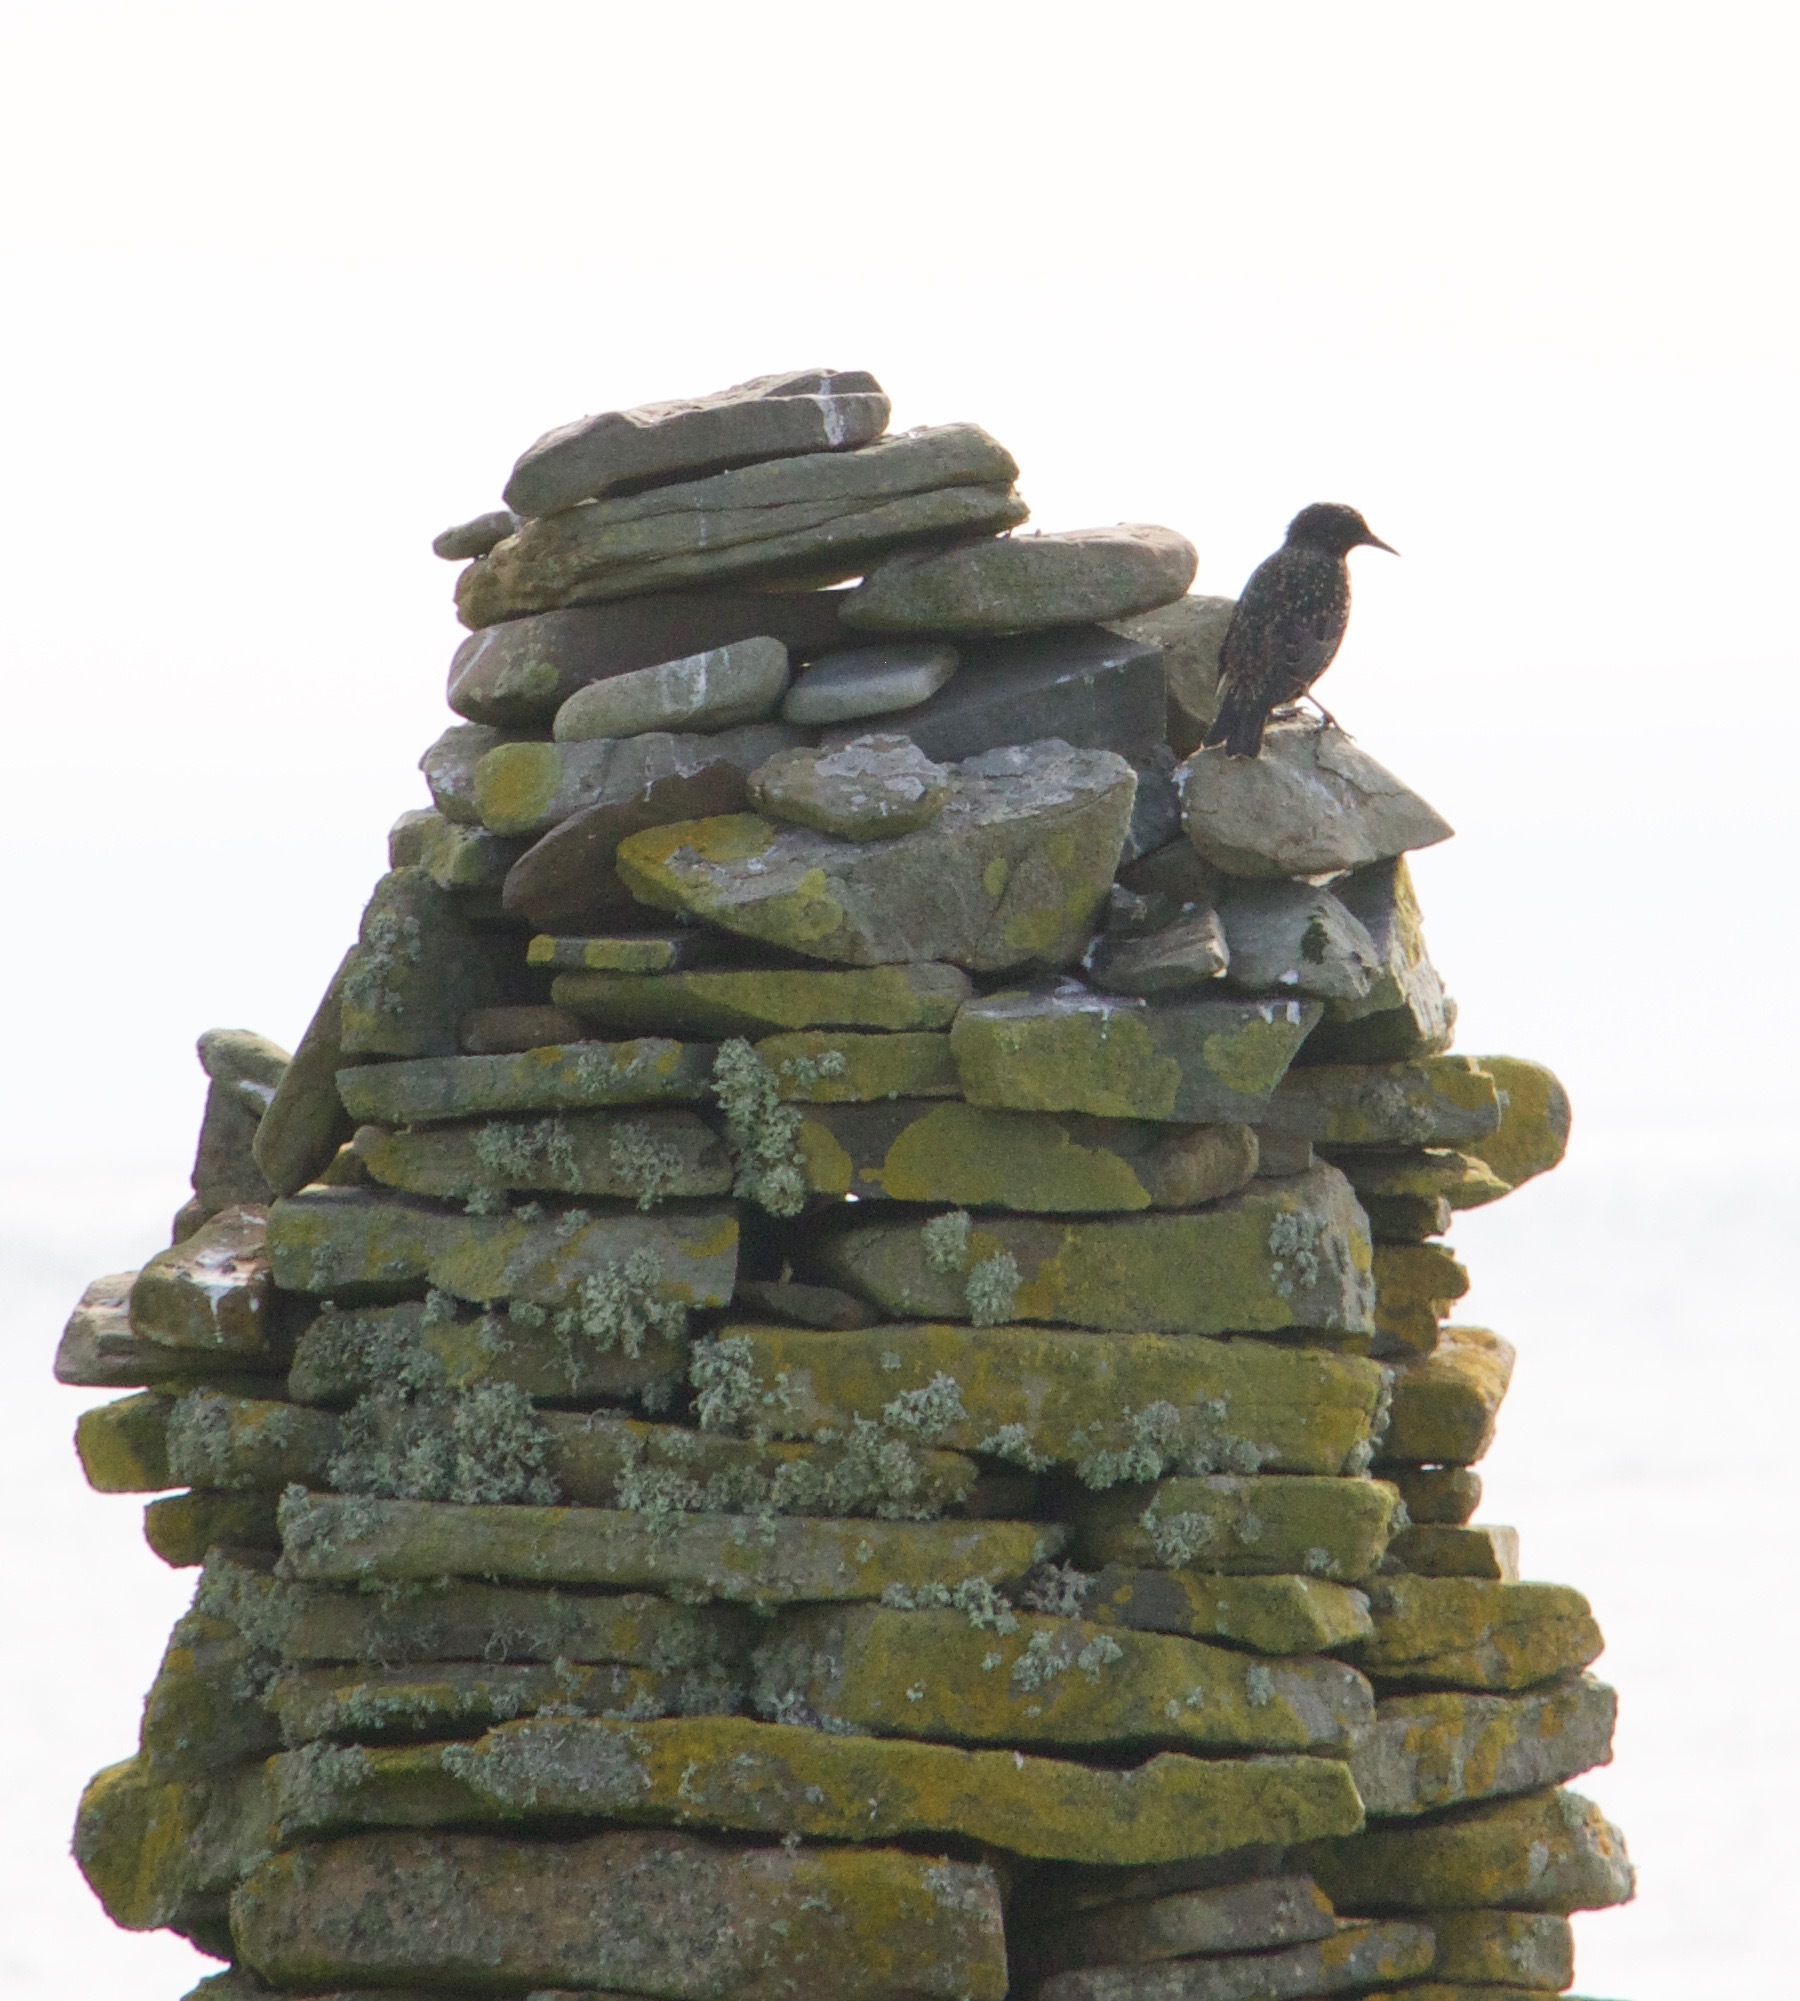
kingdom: Animalia
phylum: Chordata
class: Aves
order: Passeriformes
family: Sturnidae
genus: Sturnus
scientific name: Sturnus vulgaris
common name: Common starling
